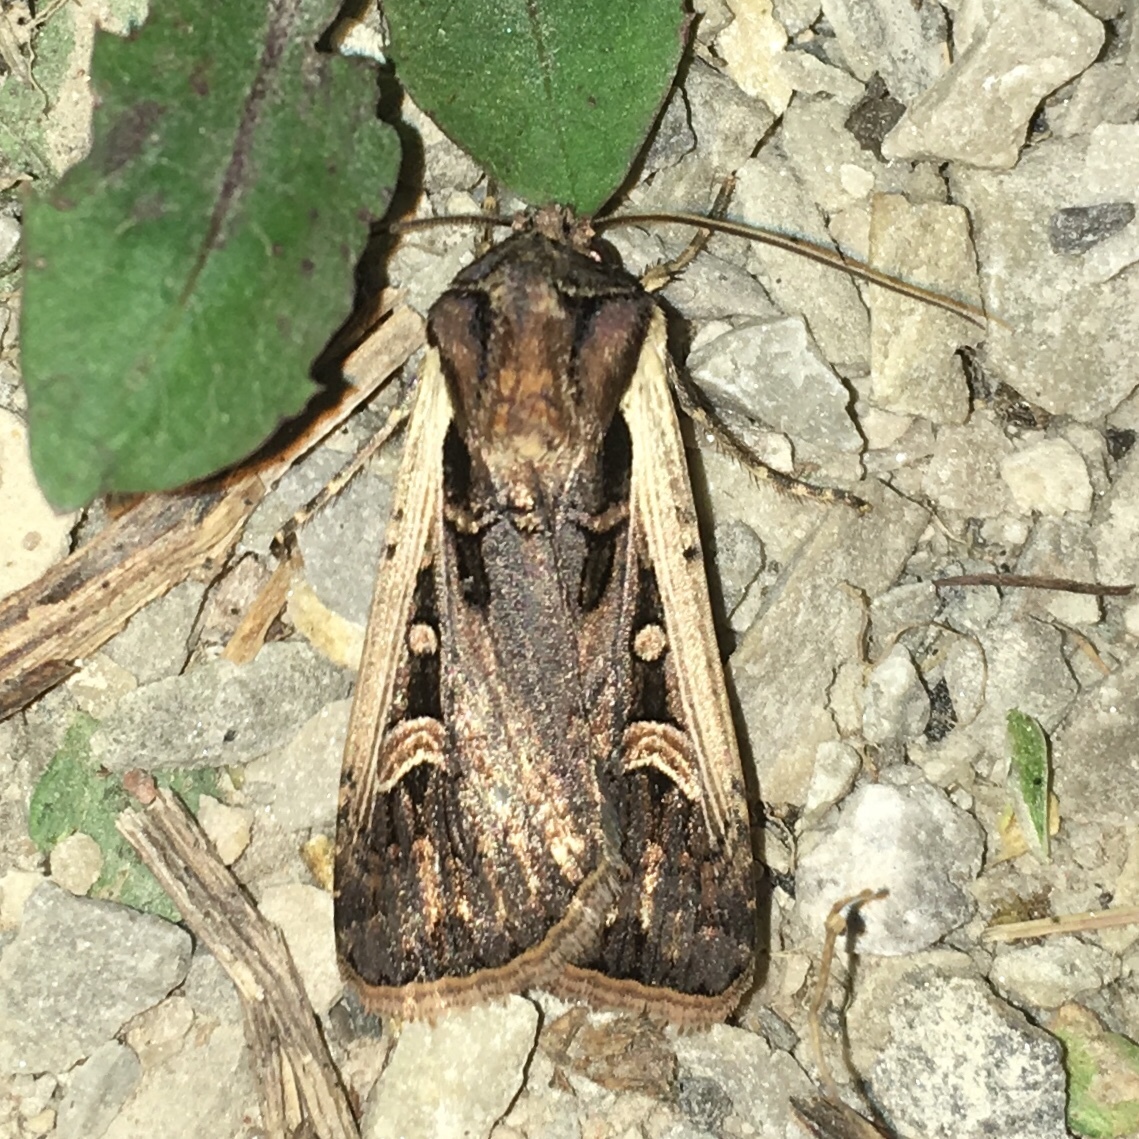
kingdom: Animalia
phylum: Arthropoda
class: Insecta
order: Lepidoptera
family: Noctuidae
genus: Striacosta
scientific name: Striacosta albicosta
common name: Western bean cutworm moth
